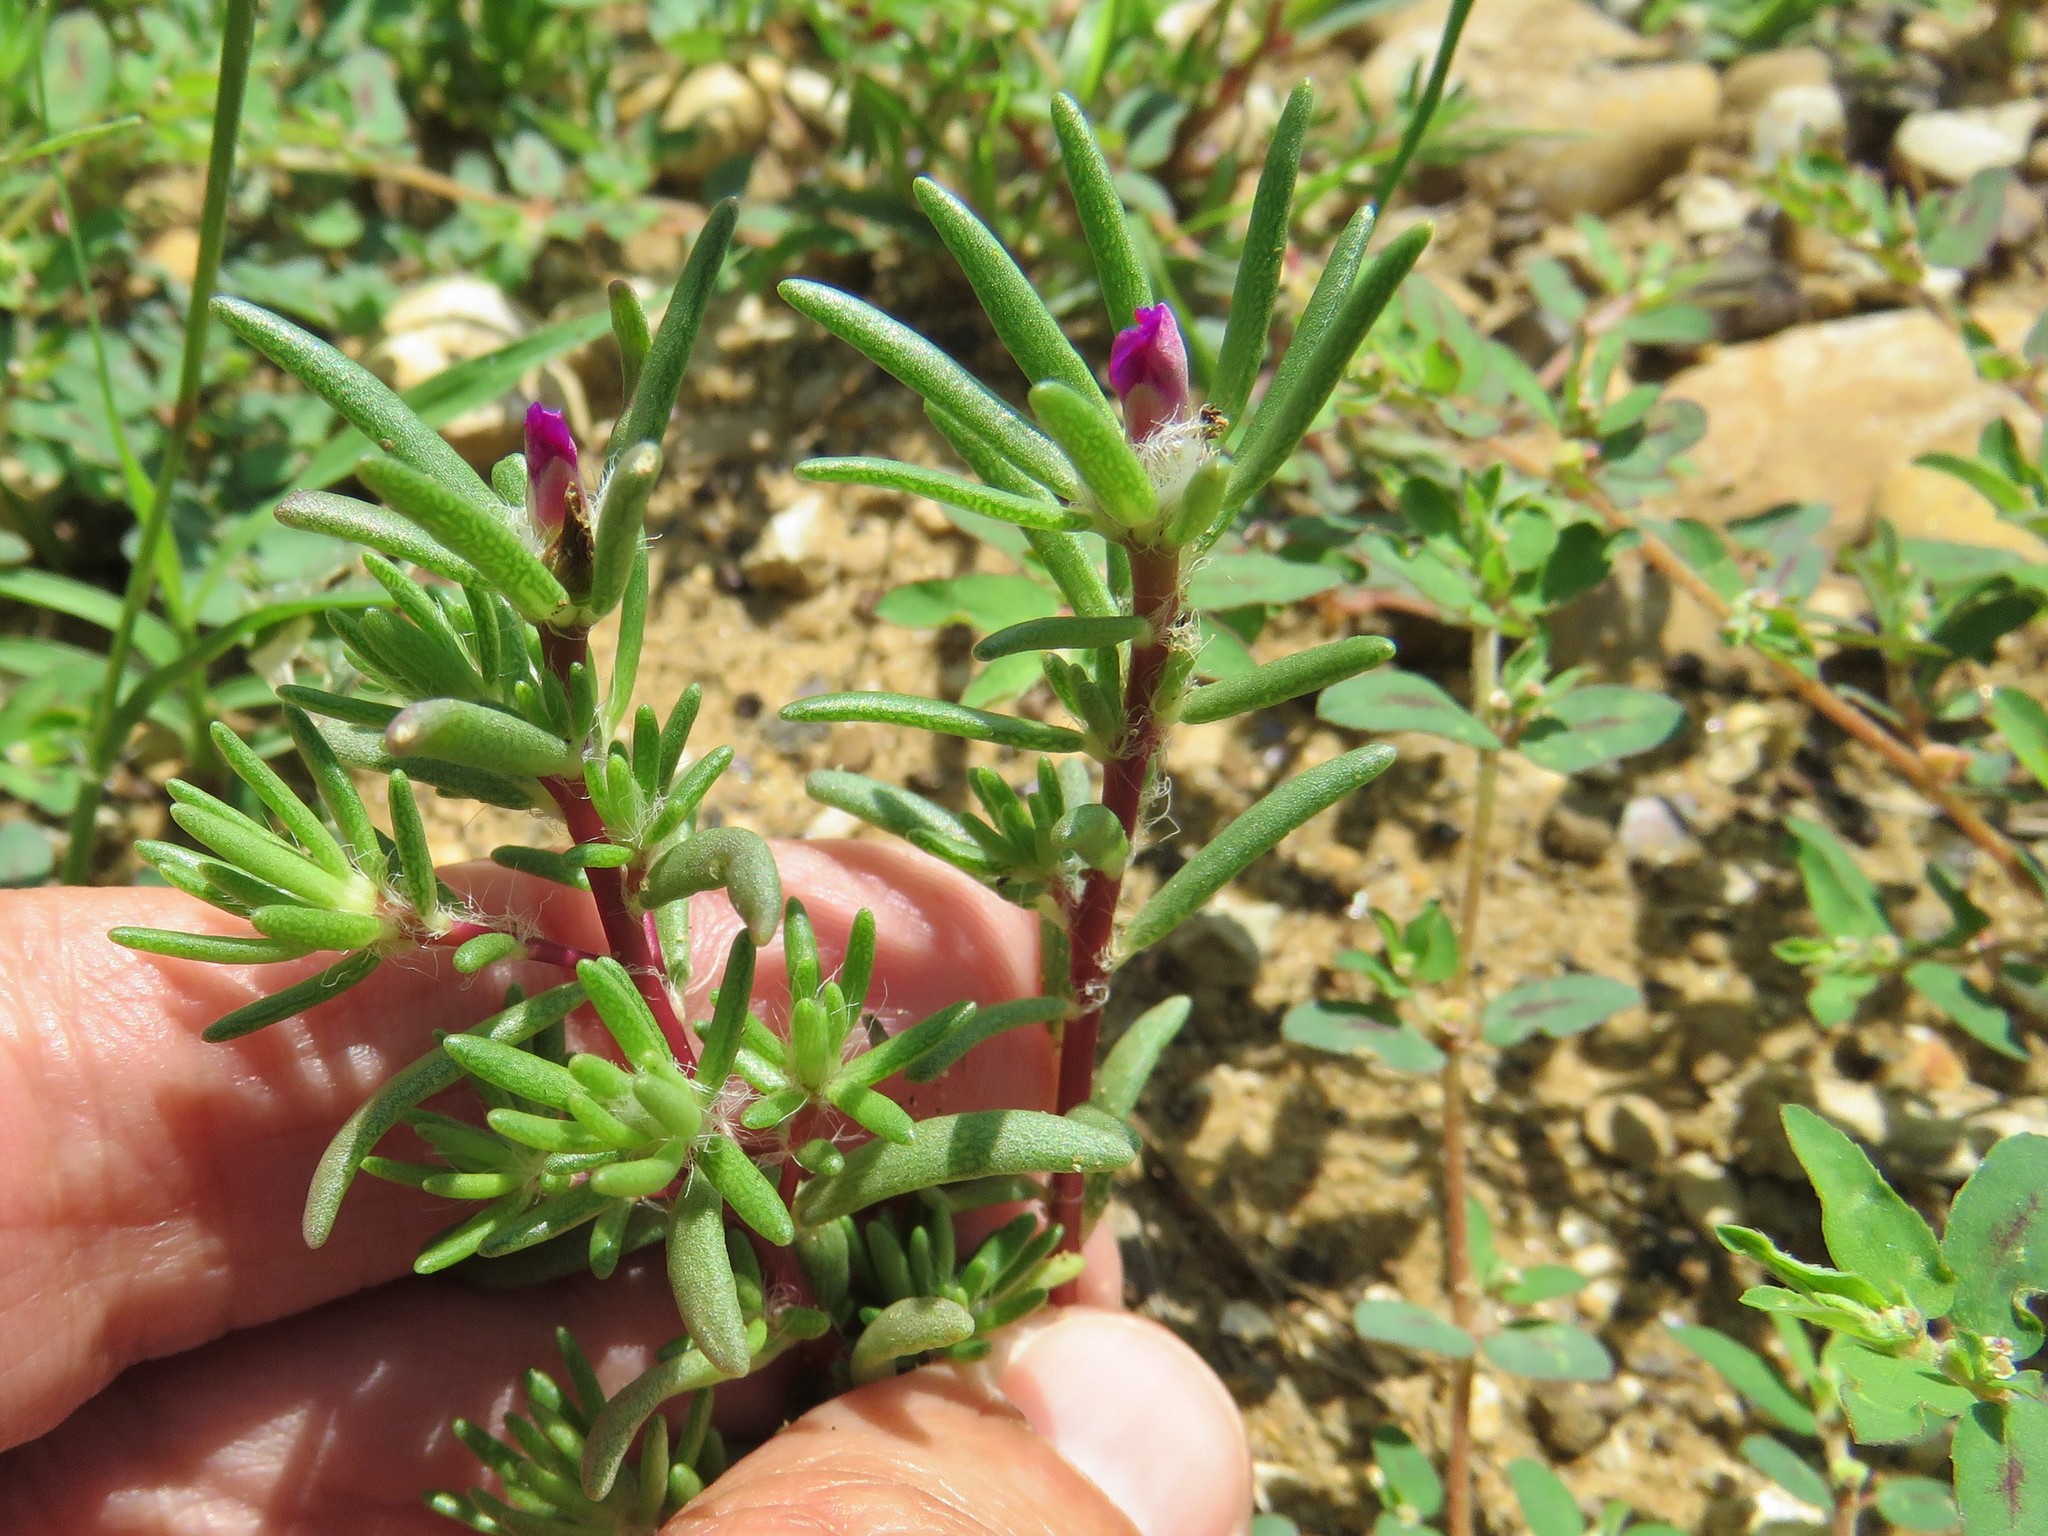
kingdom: Plantae
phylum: Tracheophyta
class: Magnoliopsida
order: Caryophyllales
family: Portulacaceae
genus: Portulaca
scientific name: Portulaca pilosa
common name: Kiss me quick
